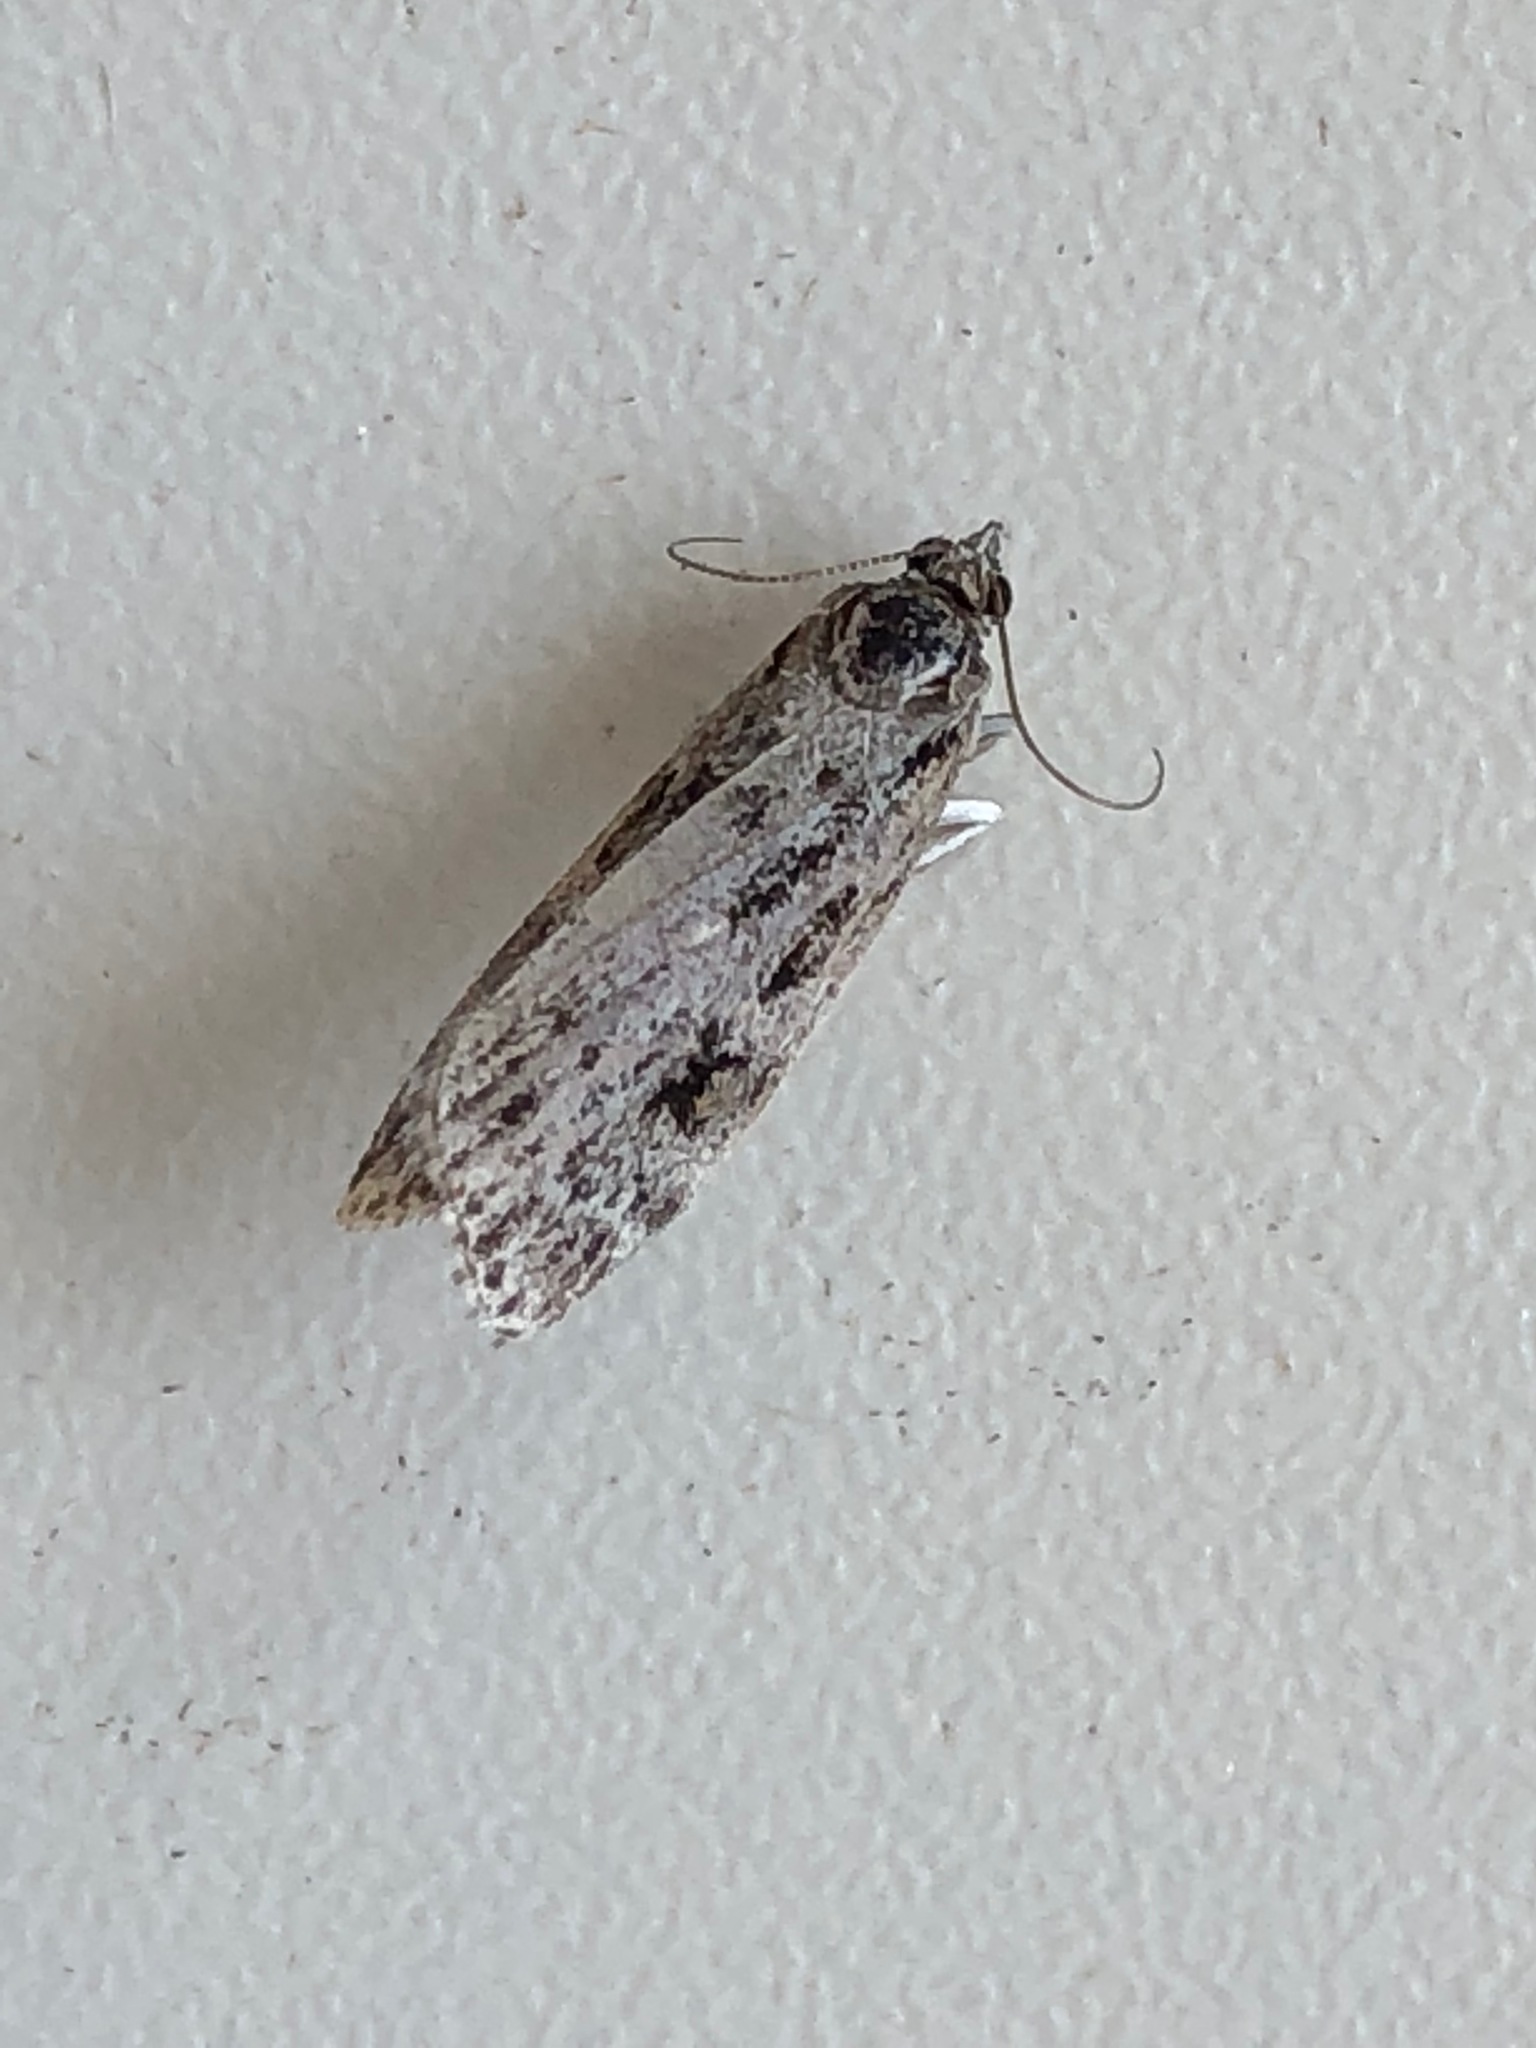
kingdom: Animalia
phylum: Arthropoda
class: Insecta
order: Lepidoptera
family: Crambidae
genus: Eudonia
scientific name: Eudonia angustea
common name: Narrow-winged grey
